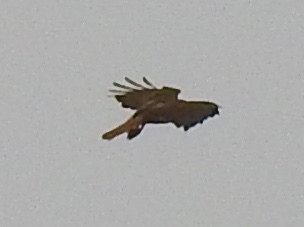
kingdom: Animalia
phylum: Chordata
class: Aves
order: Accipitriformes
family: Accipitridae
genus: Buteo
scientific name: Buteo jamaicensis
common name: Red-tailed hawk
